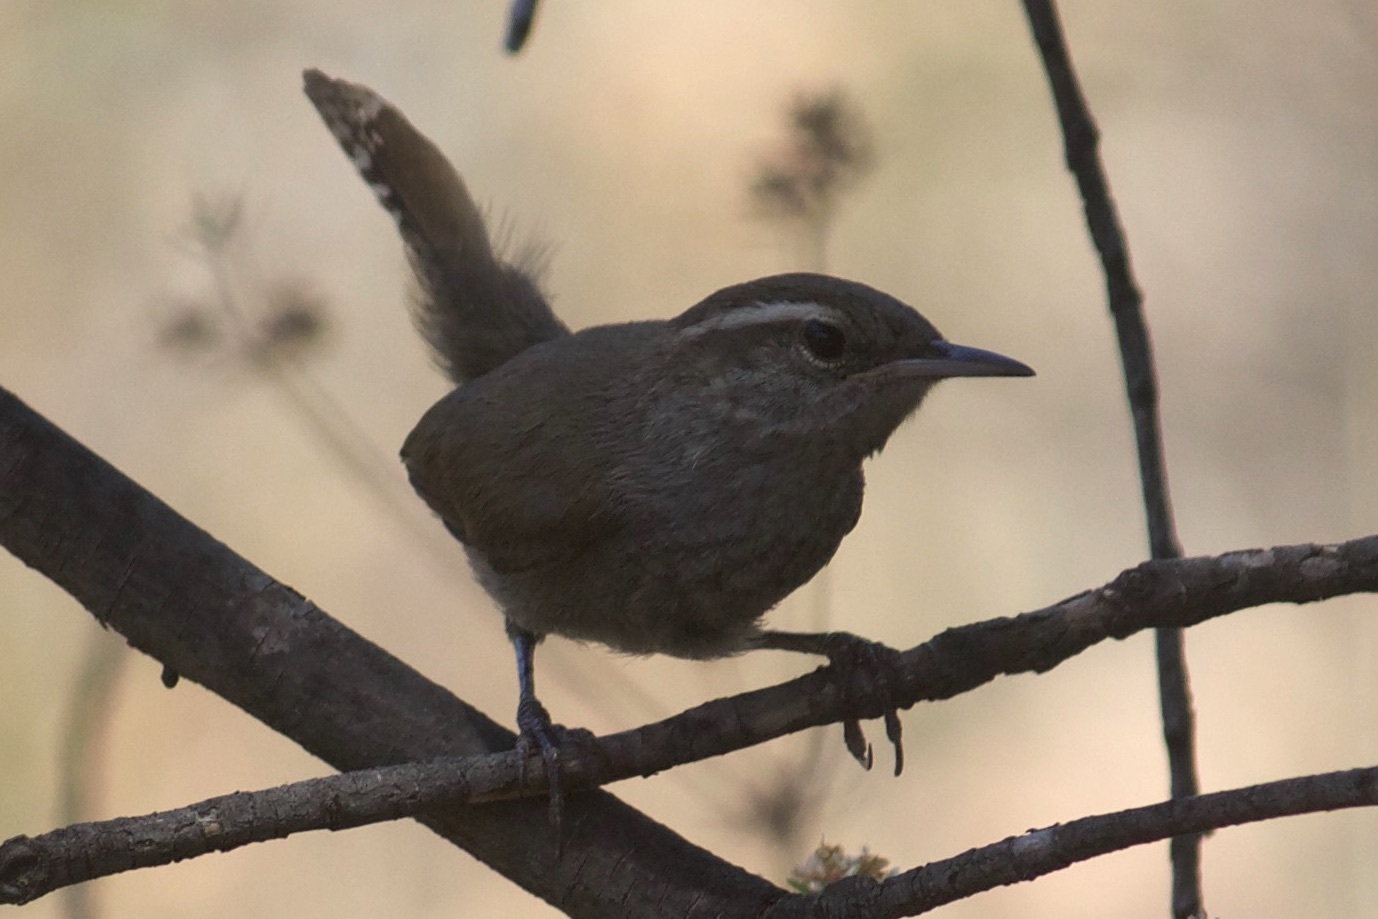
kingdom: Animalia
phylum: Chordata
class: Aves
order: Passeriformes
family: Troglodytidae
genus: Thryomanes
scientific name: Thryomanes bewickii
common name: Bewick's wren
